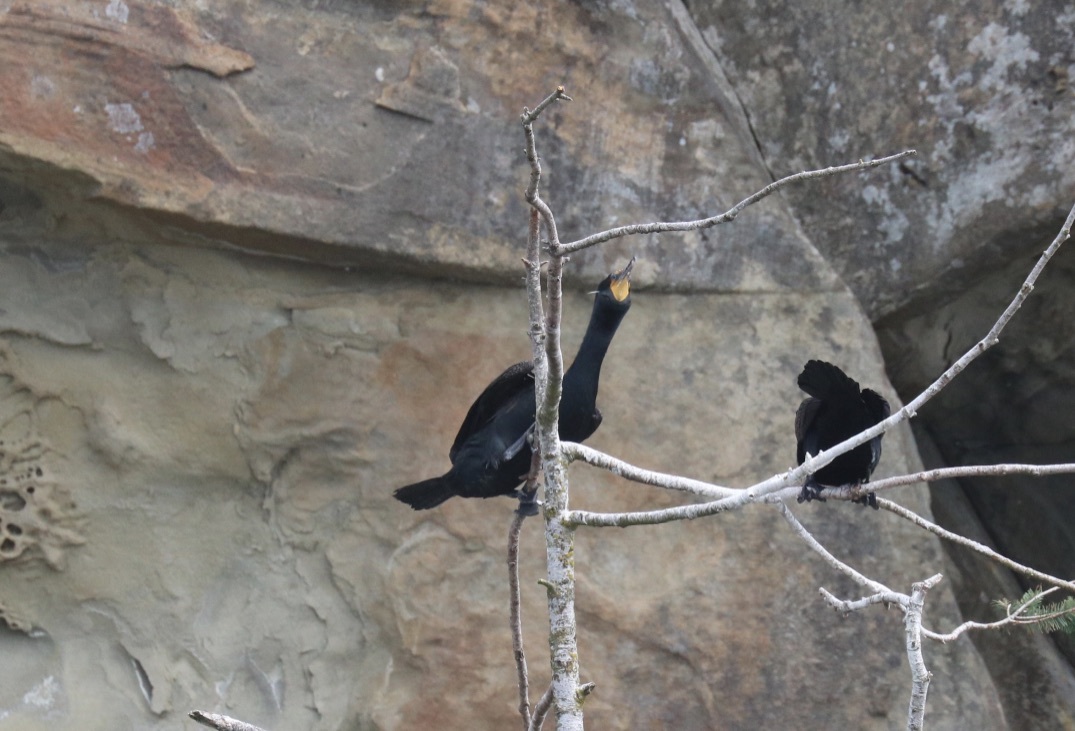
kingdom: Animalia
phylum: Chordata
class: Aves
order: Suliformes
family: Phalacrocoracidae
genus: Phalacrocorax
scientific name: Phalacrocorax auritus
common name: Double-crested cormorant
